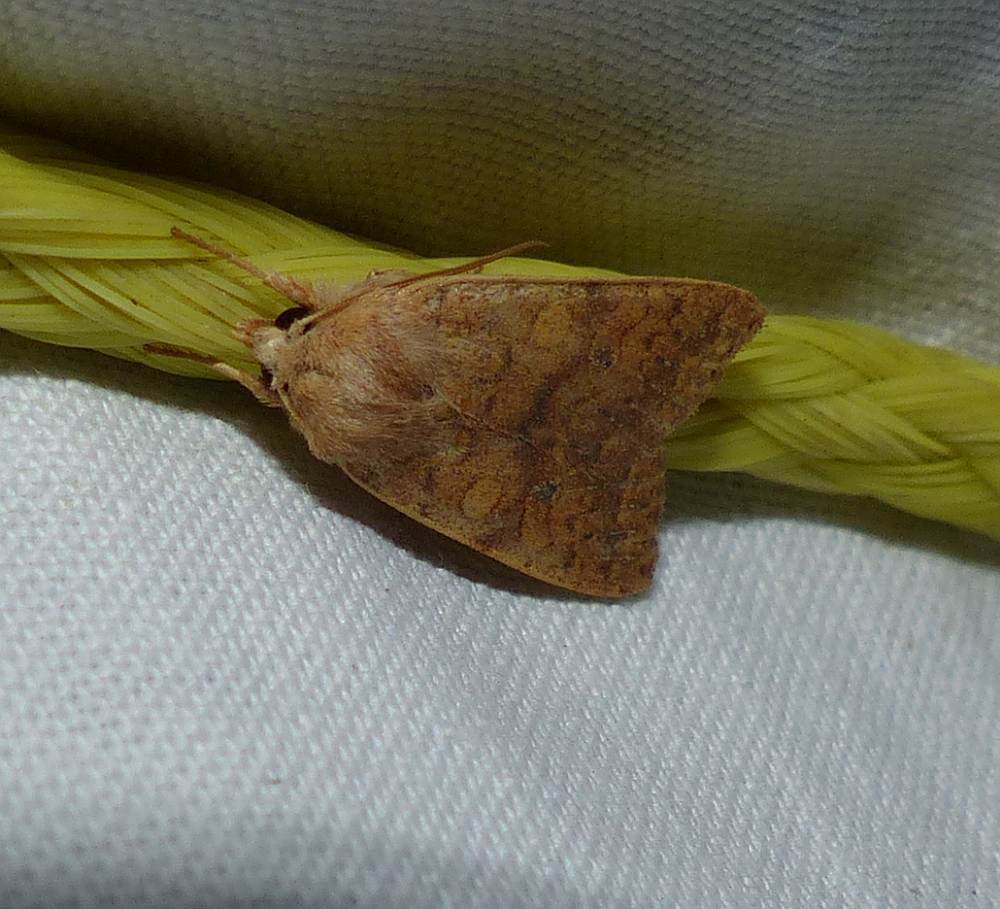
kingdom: Animalia
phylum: Arthropoda
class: Insecta
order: Lepidoptera
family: Noctuidae
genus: Agrochola
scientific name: Agrochola bicolorago
